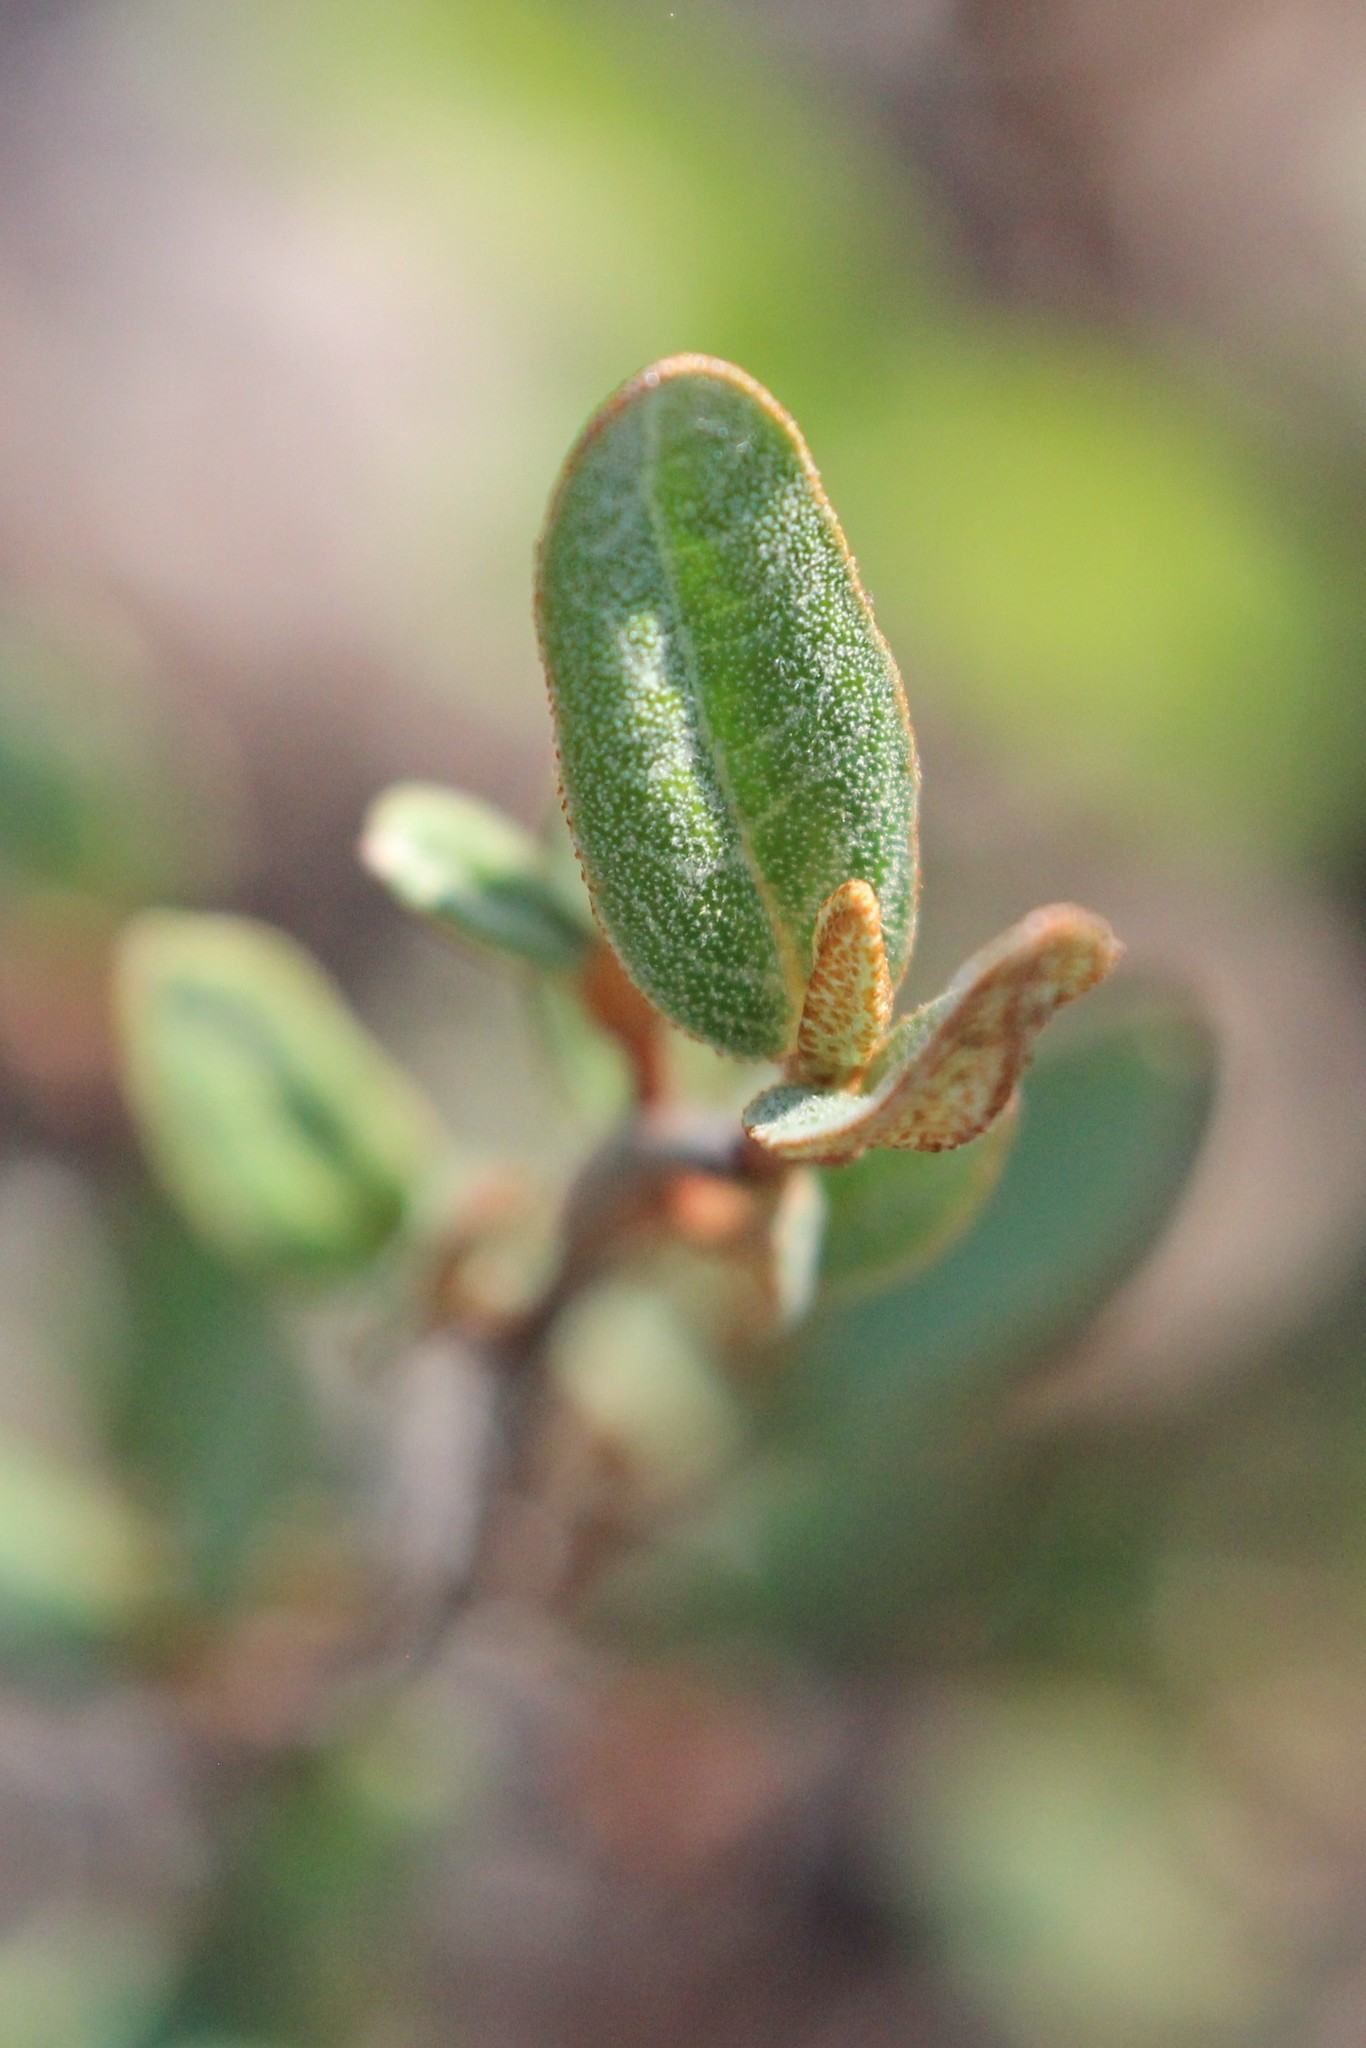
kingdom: Plantae
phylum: Tracheophyta
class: Magnoliopsida
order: Rosales
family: Elaeagnaceae
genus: Shepherdia
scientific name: Shepherdia canadensis
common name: Soapberry
